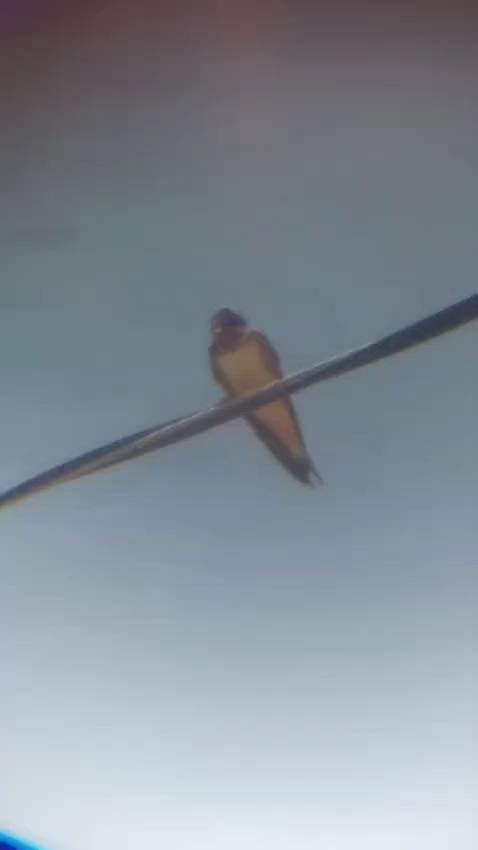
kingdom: Animalia
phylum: Chordata
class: Aves
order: Passeriformes
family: Hirundinidae
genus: Hirundo
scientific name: Hirundo rustica
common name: Barn swallow
